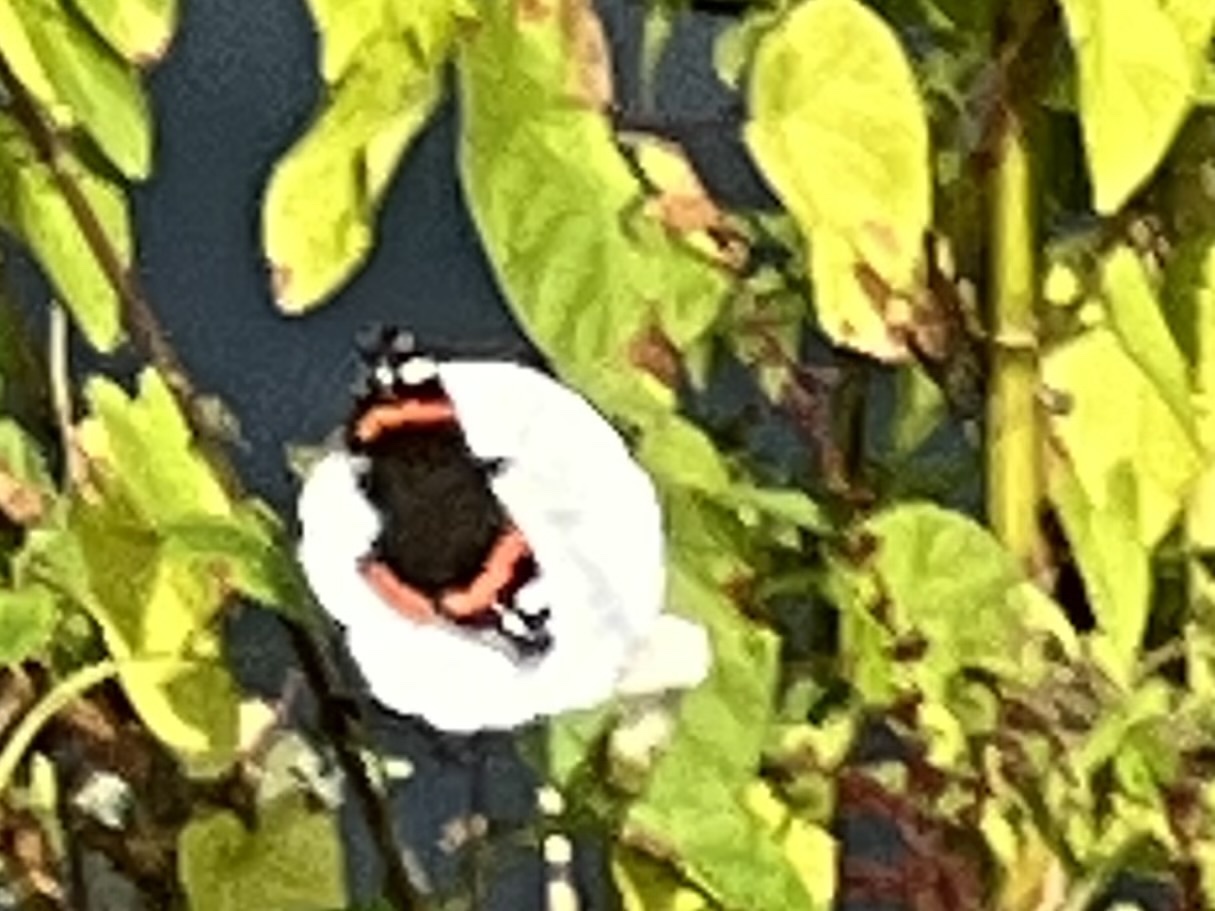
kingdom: Animalia
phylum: Arthropoda
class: Insecta
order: Lepidoptera
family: Nymphalidae
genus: Vanessa
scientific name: Vanessa atalanta
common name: Red admiral
